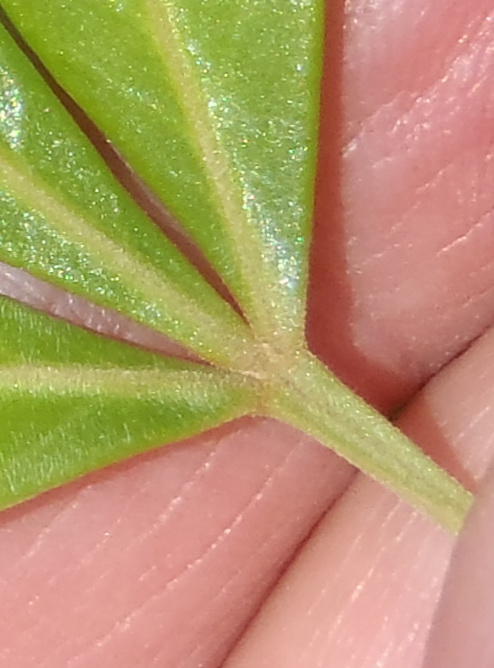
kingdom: Plantae
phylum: Tracheophyta
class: Magnoliopsida
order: Sapindales
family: Anacardiaceae
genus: Searsia
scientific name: Searsia lucida
